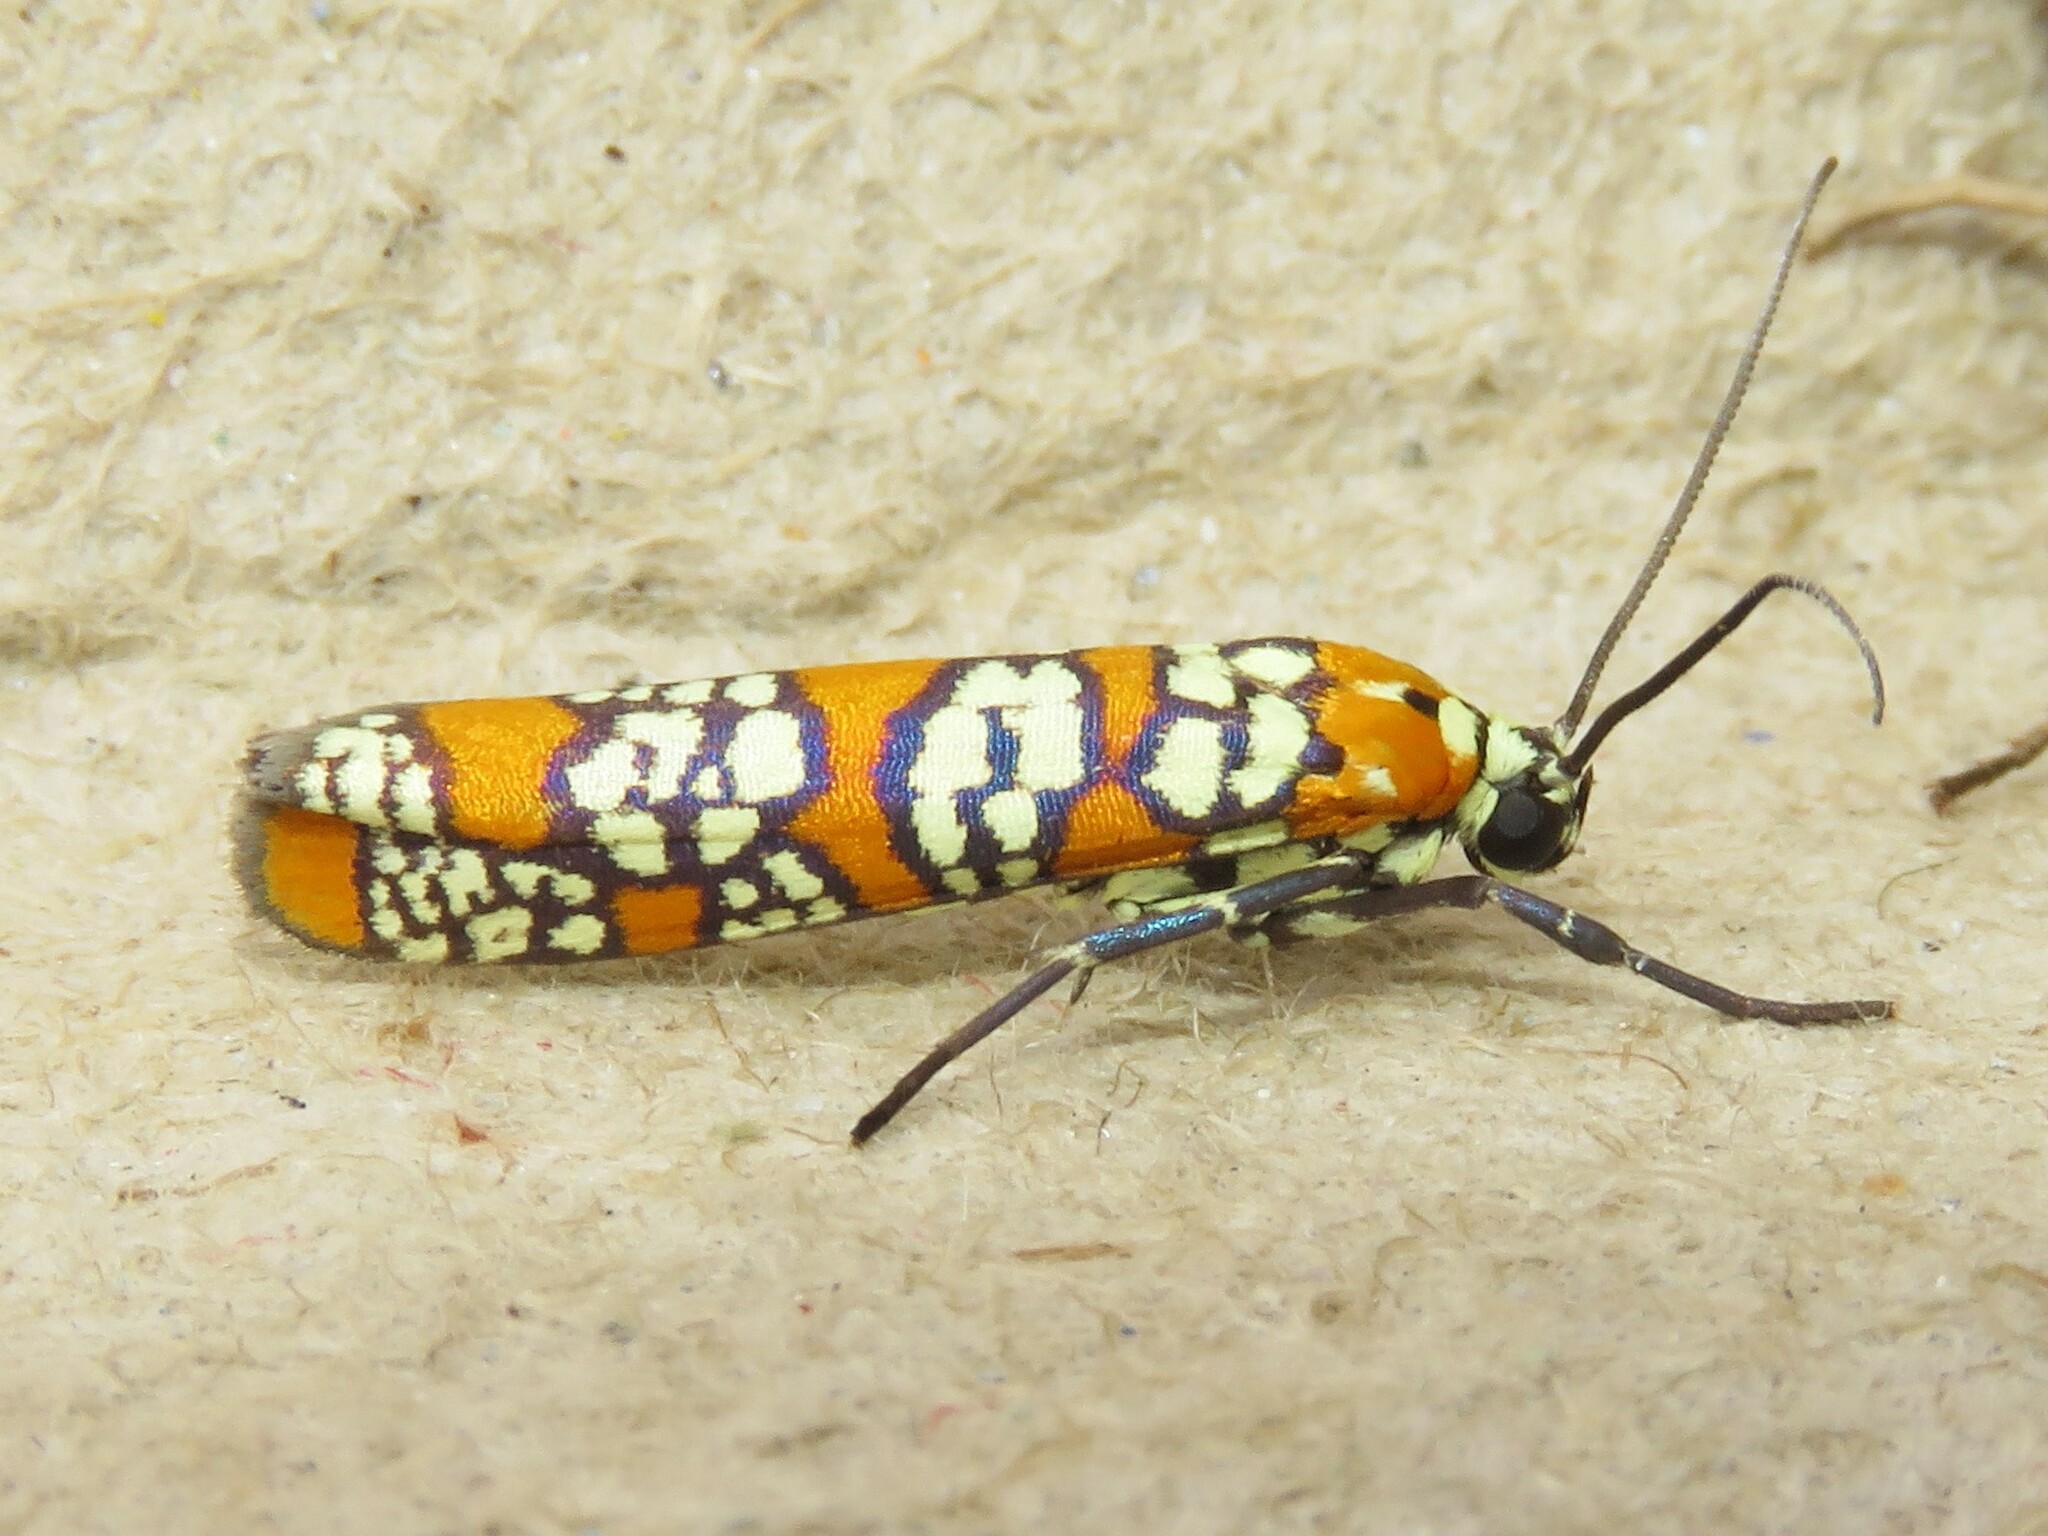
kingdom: Animalia
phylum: Arthropoda
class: Insecta
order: Lepidoptera
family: Attevidae
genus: Atteva
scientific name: Atteva punctella
